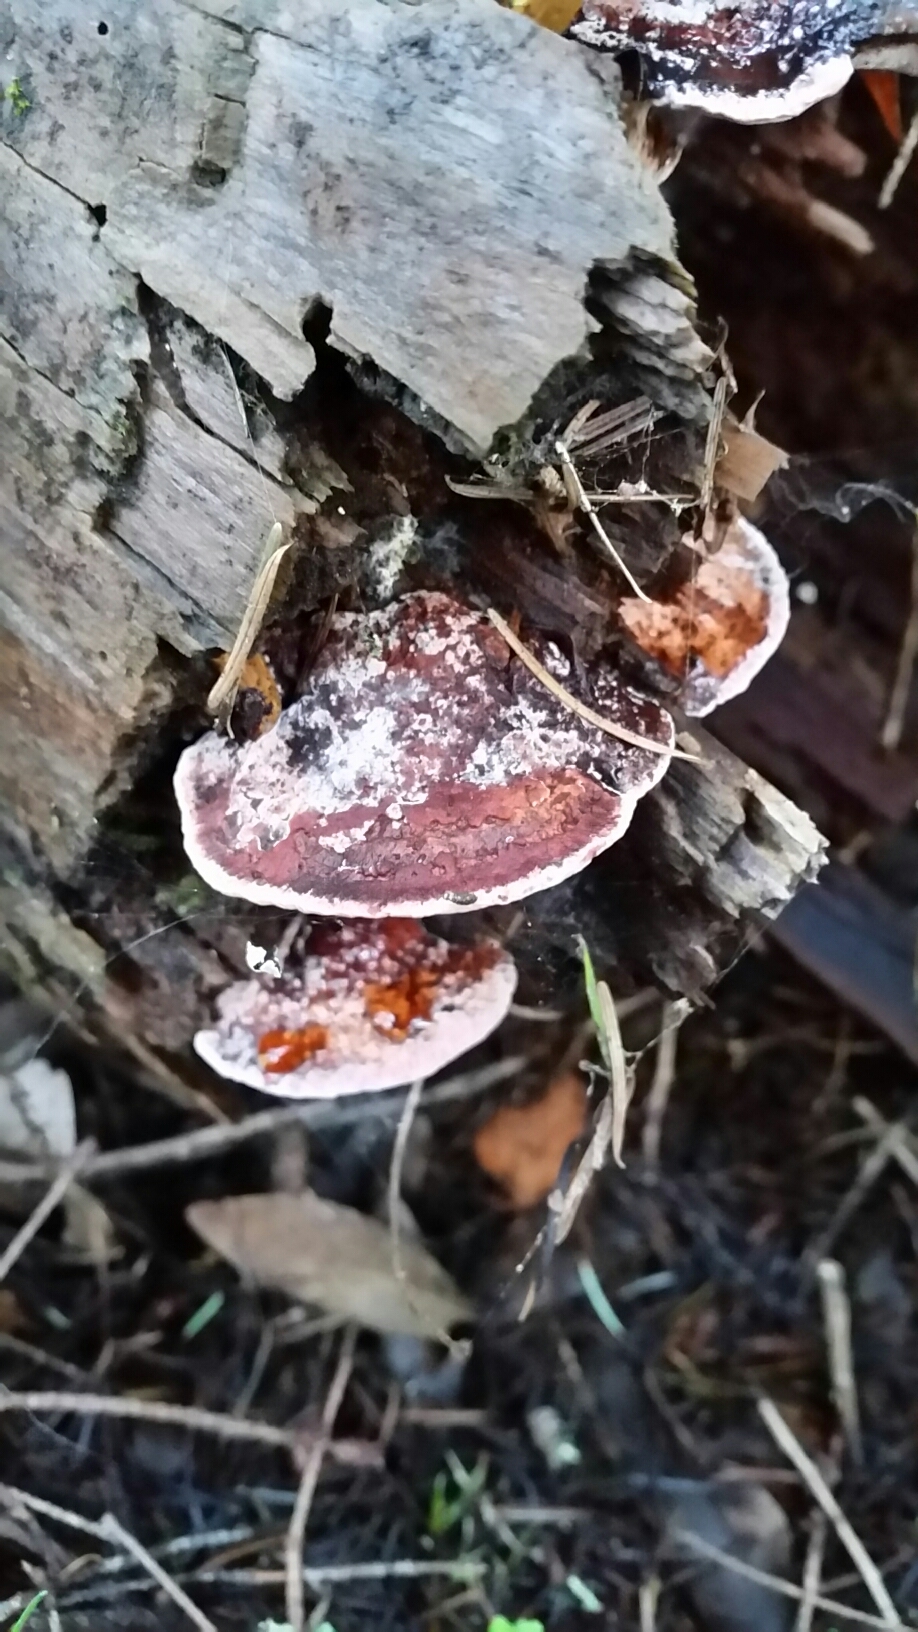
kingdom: Fungi
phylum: Basidiomycota
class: Agaricomycetes
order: Polyporales
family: Fomitopsidaceae
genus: Rhodofomes
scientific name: Rhodofomes cajanderi
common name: Rosy conk
